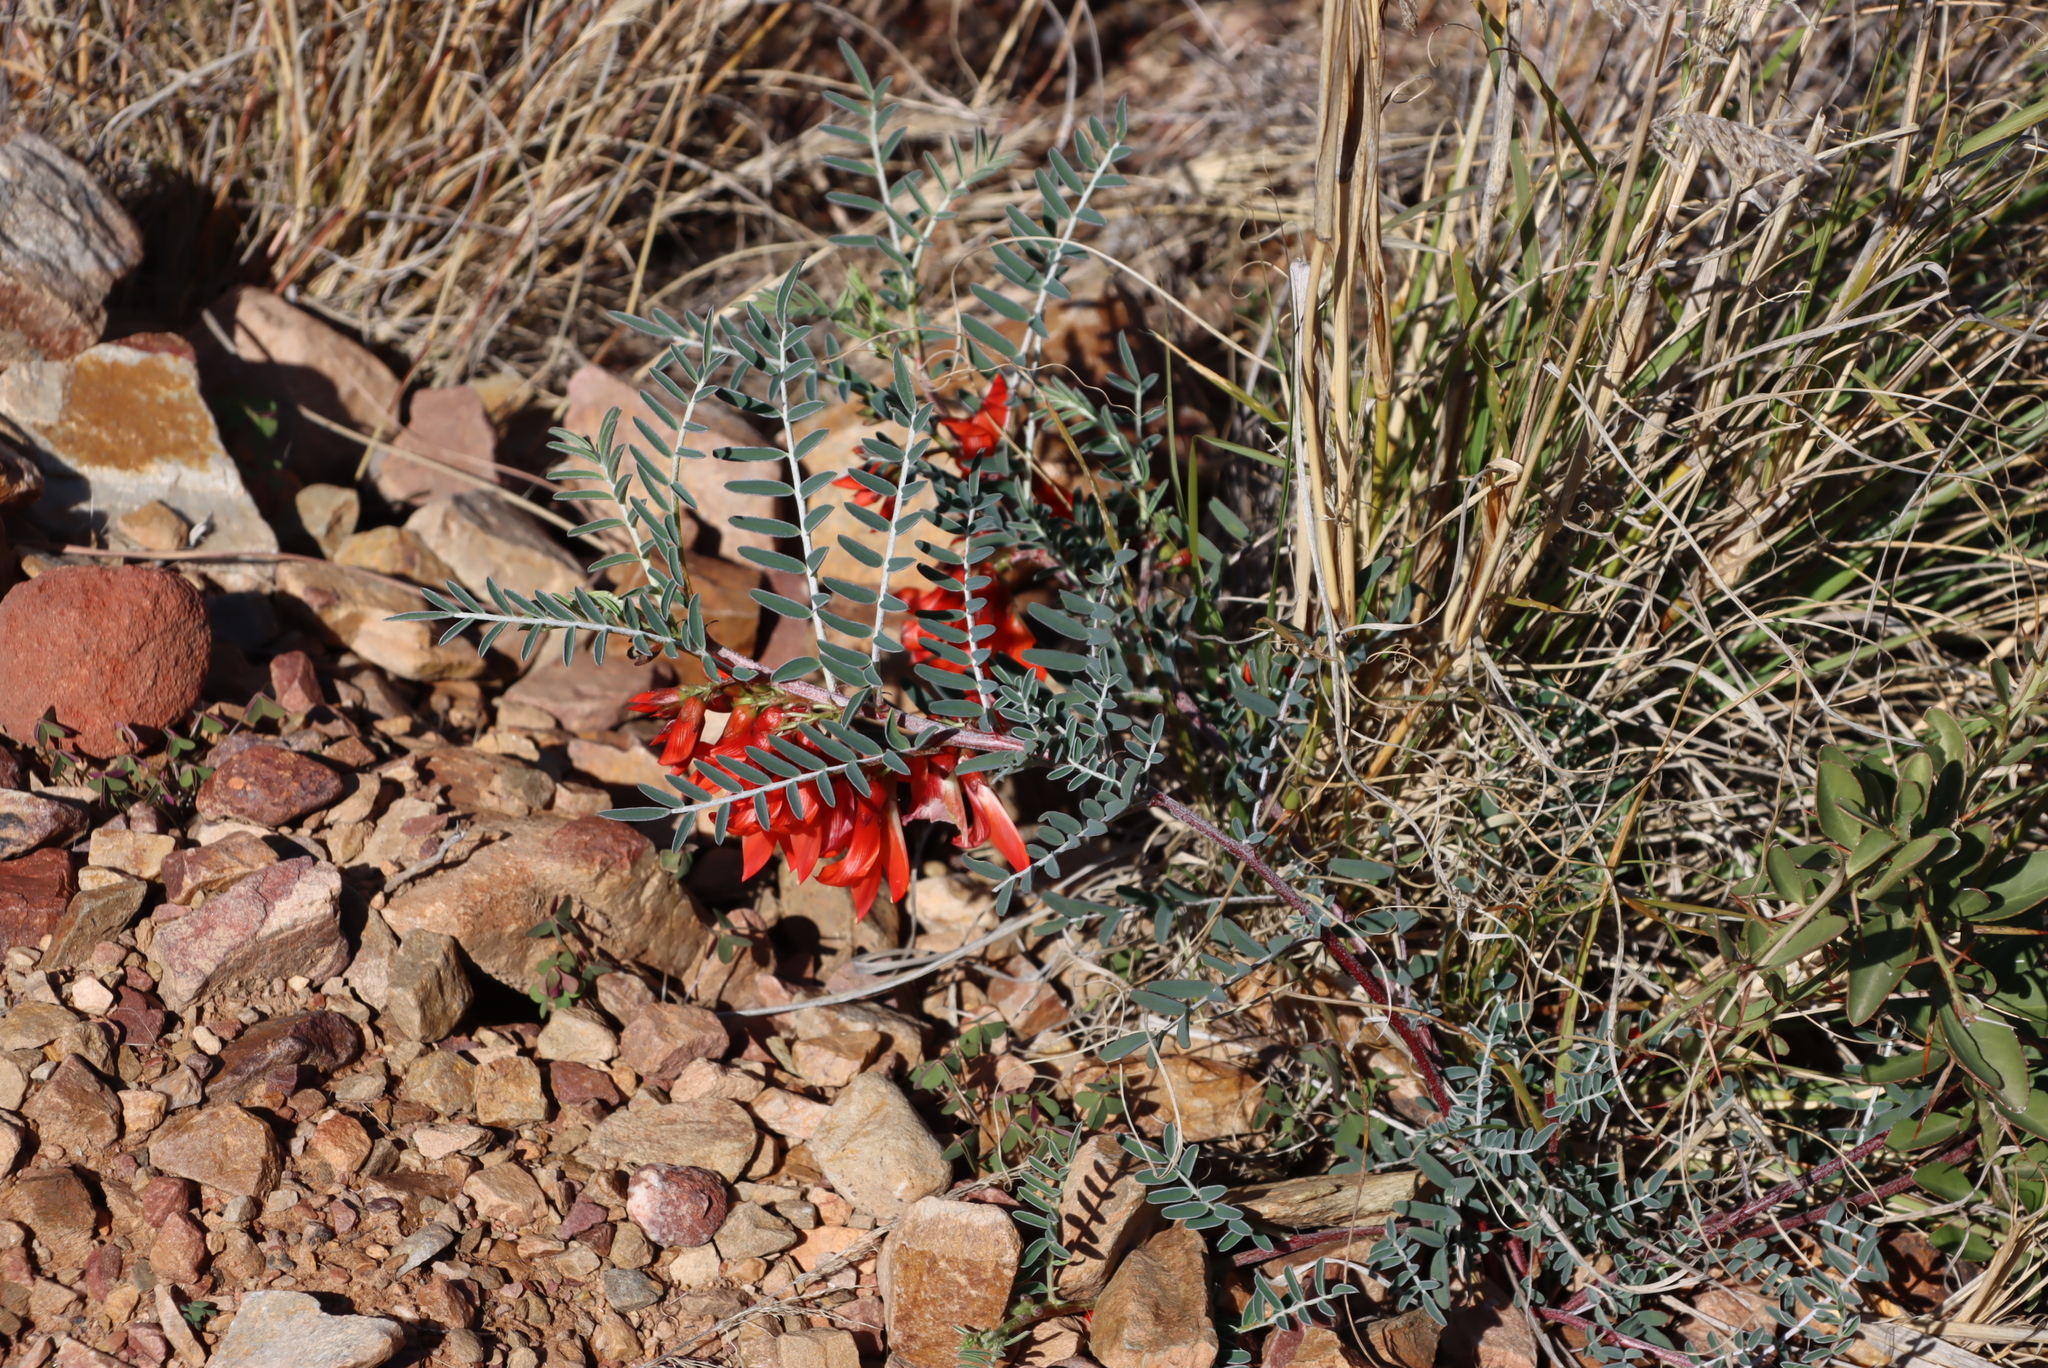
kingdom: Plantae
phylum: Tracheophyta
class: Magnoliopsida
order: Fabales
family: Fabaceae
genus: Lessertia
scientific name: Lessertia frutescens
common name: Balloon-pea
